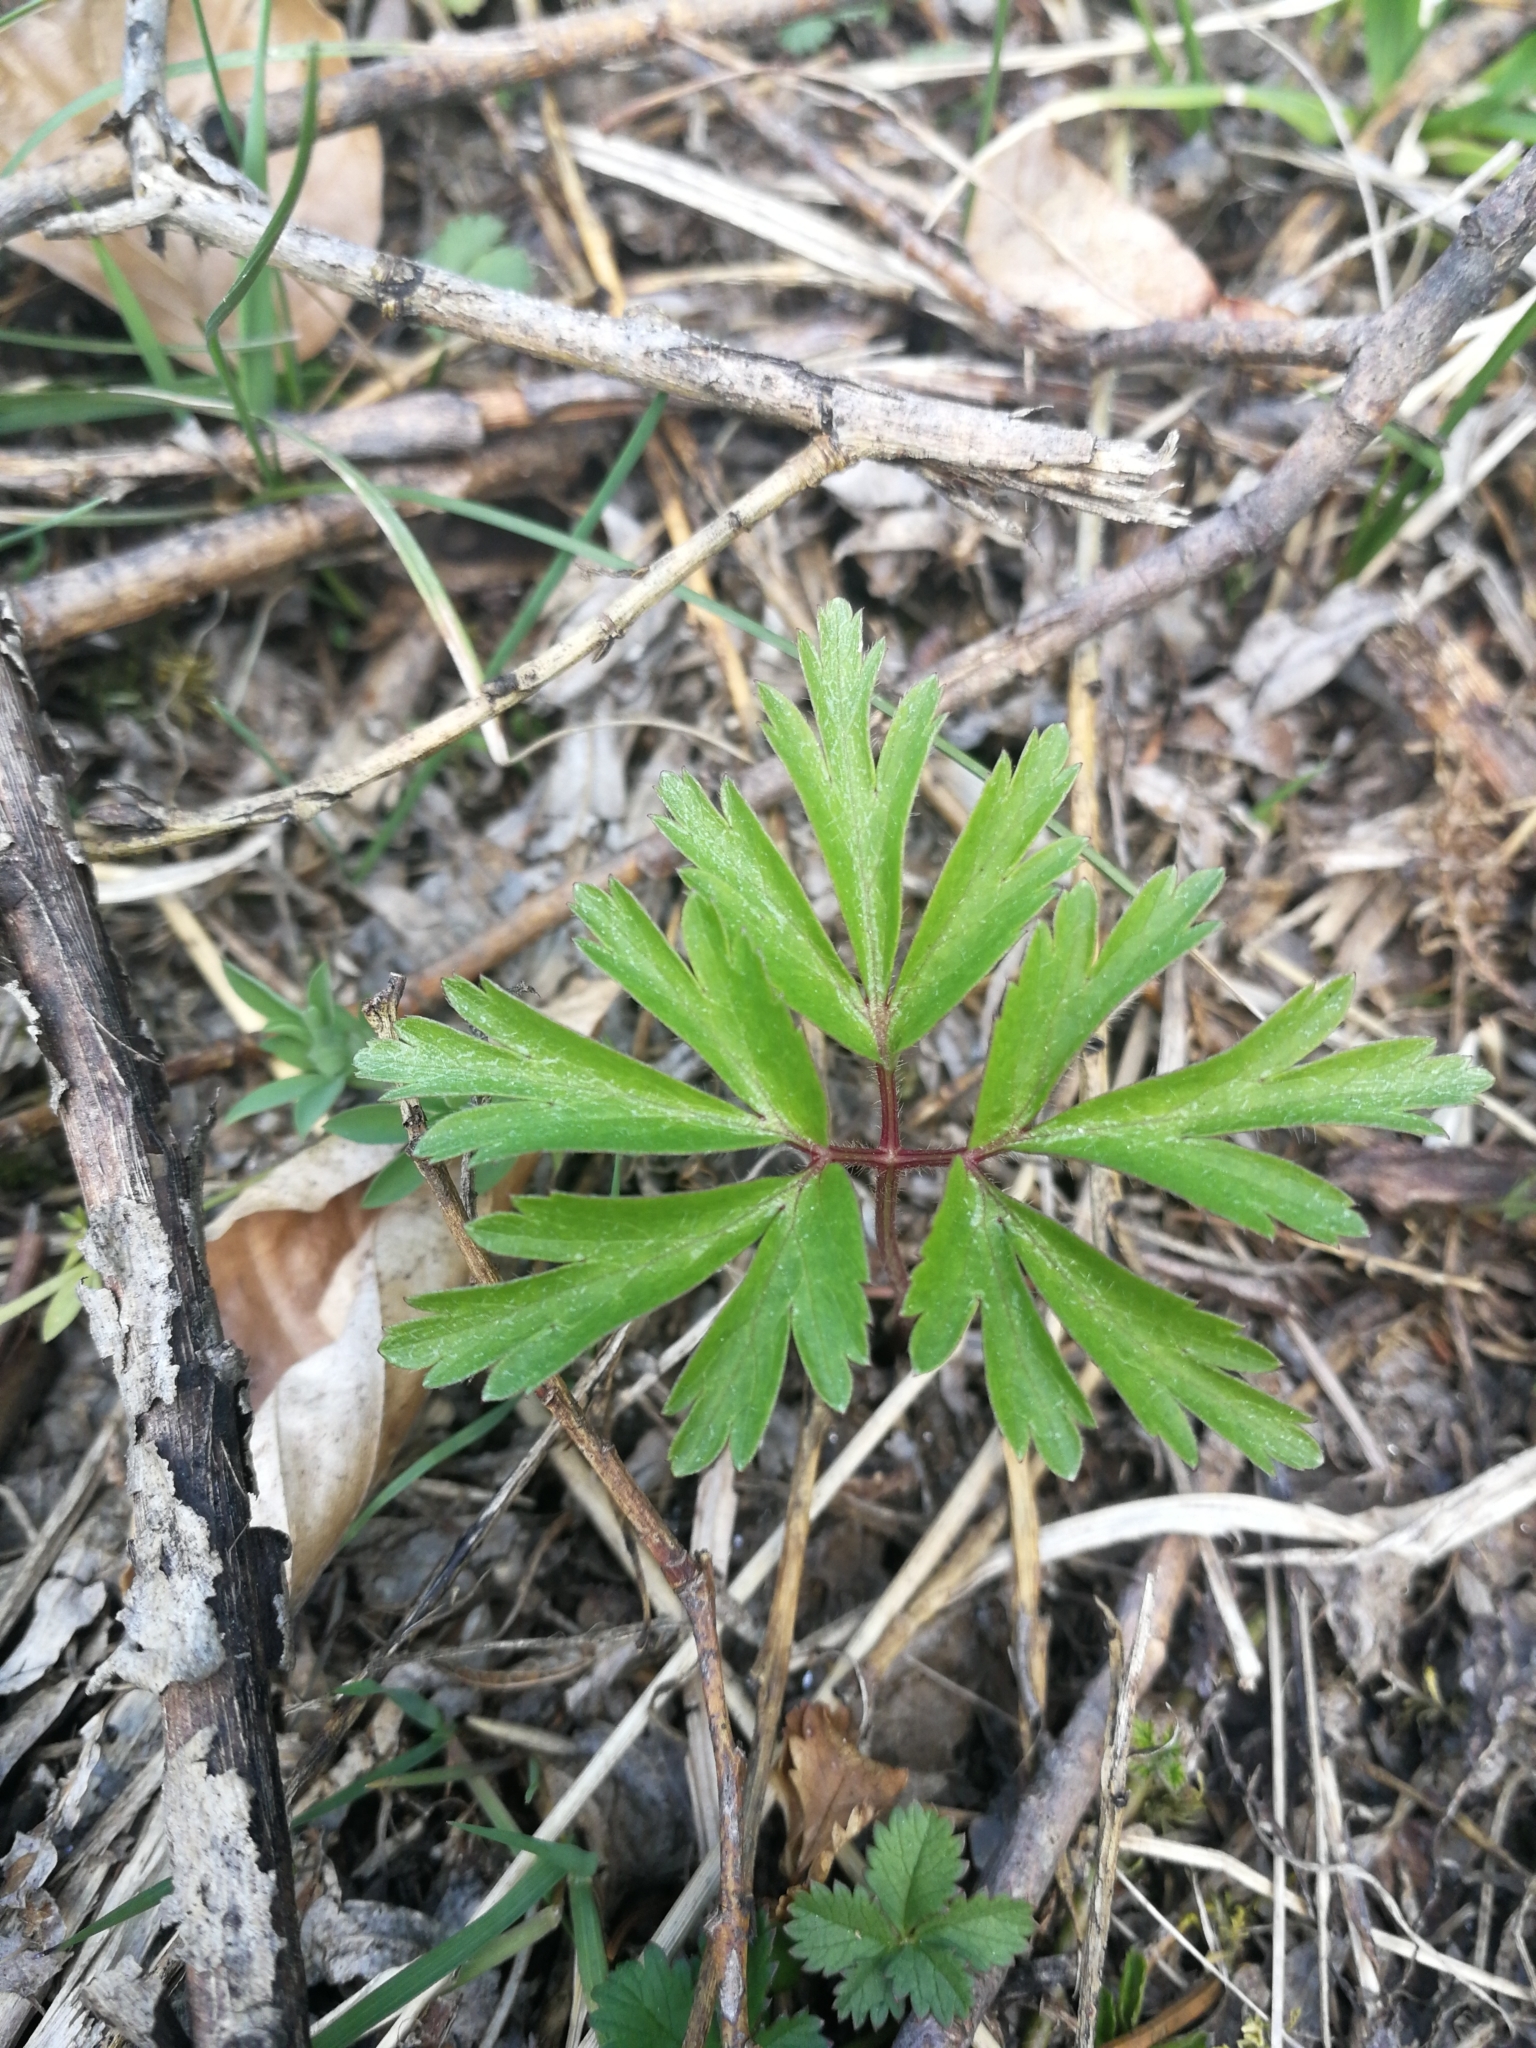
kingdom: Plantae
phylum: Tracheophyta
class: Magnoliopsida
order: Ranunculales
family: Ranunculaceae
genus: Anemone
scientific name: Anemone nemorosa
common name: Wood anemone
